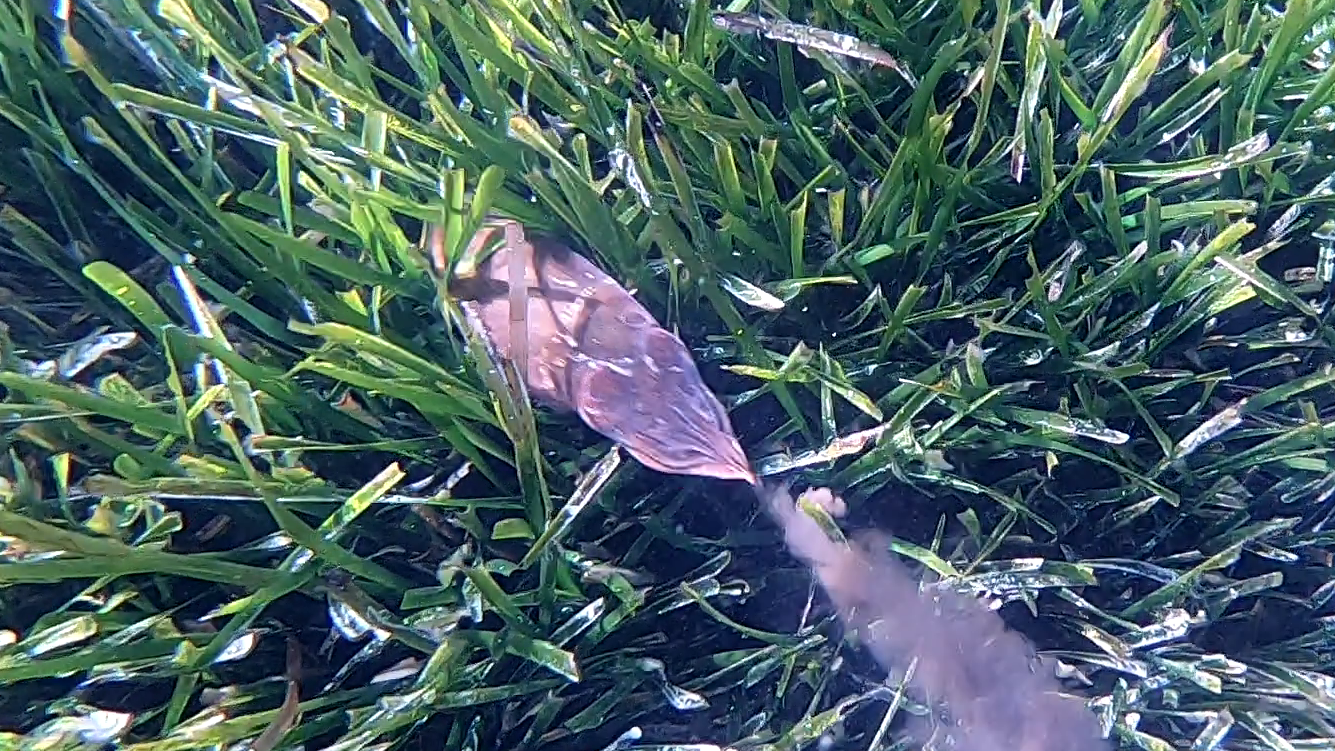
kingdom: Animalia
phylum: Mollusca
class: Cephalopoda
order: Sepiida
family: Sepiidae
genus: Sepia
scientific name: Sepia officinalis
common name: Common cuttlefish
